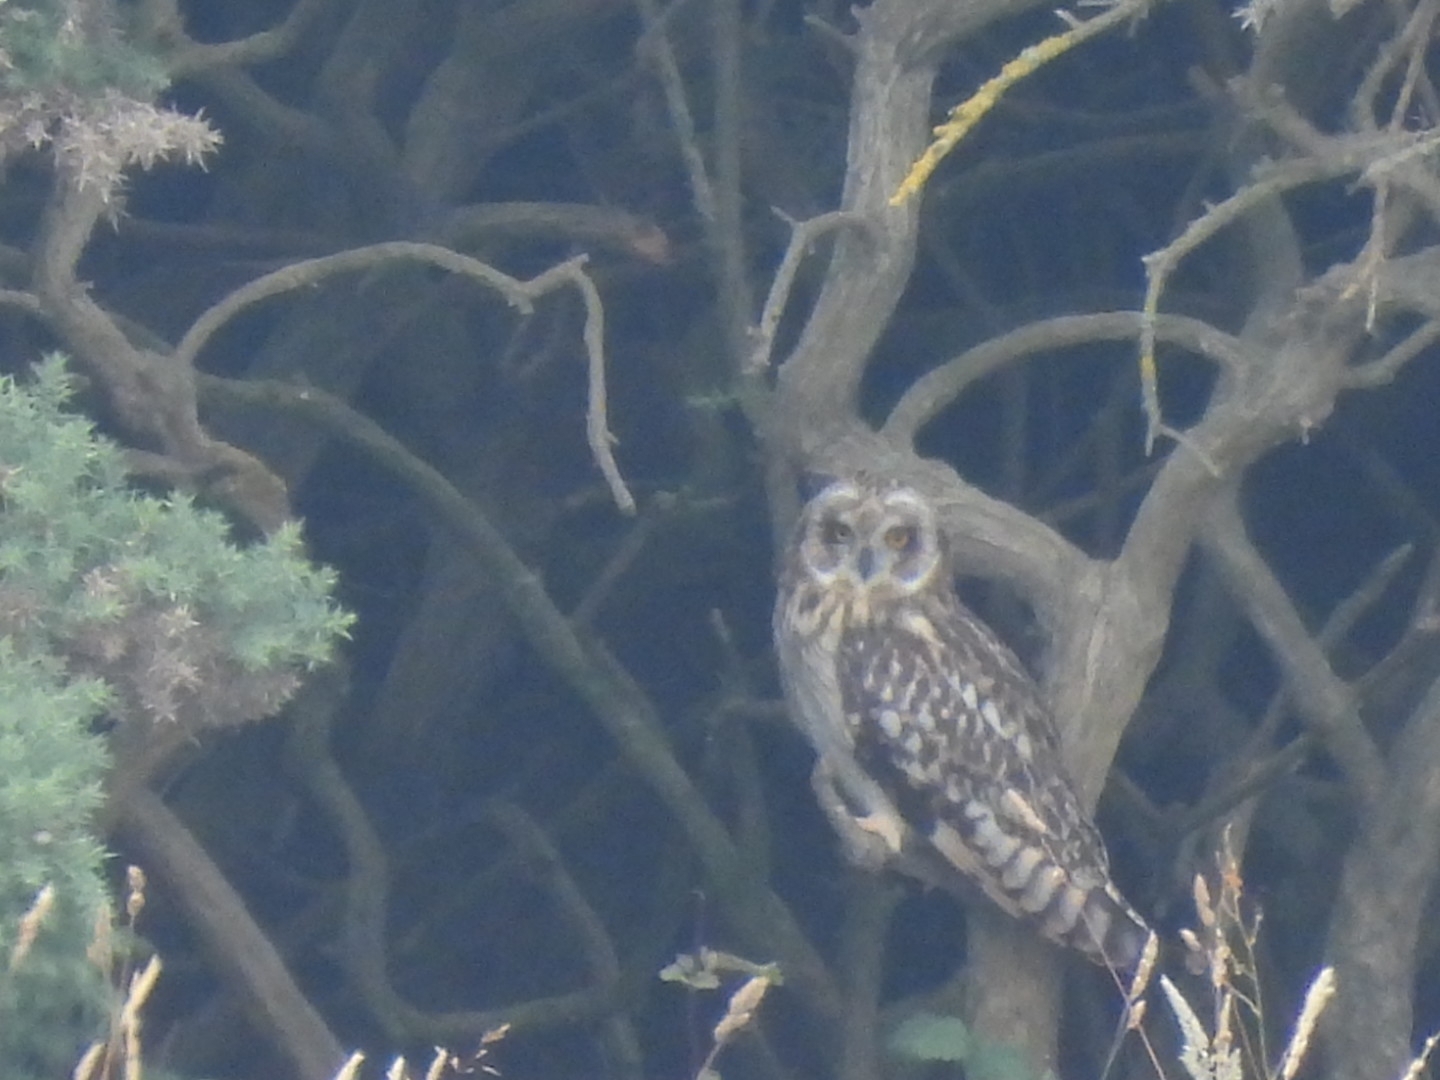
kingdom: Animalia
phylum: Chordata
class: Aves
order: Strigiformes
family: Strigidae
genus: Asio
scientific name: Asio flammeus
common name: Short-eared owl
